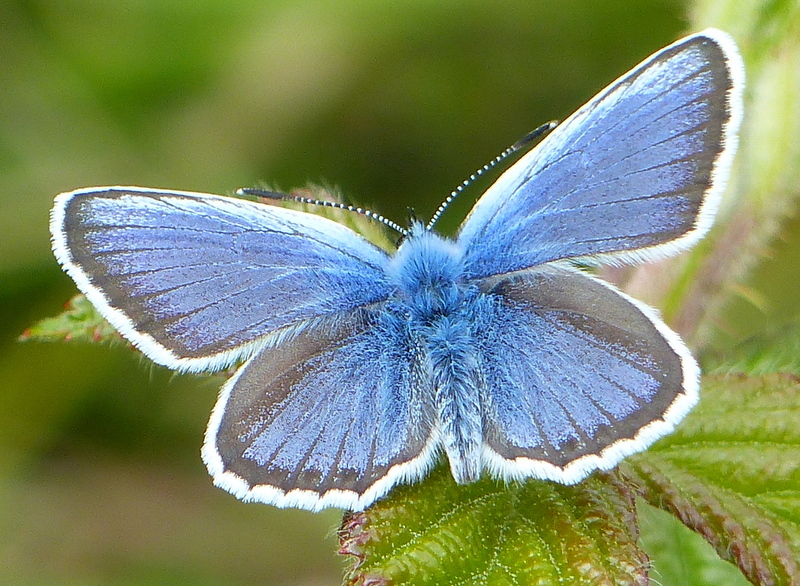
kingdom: Animalia
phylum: Arthropoda
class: Insecta
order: Lepidoptera
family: Lycaenidae
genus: Plebejus
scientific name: Plebejus argus
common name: Silver-studded blue
